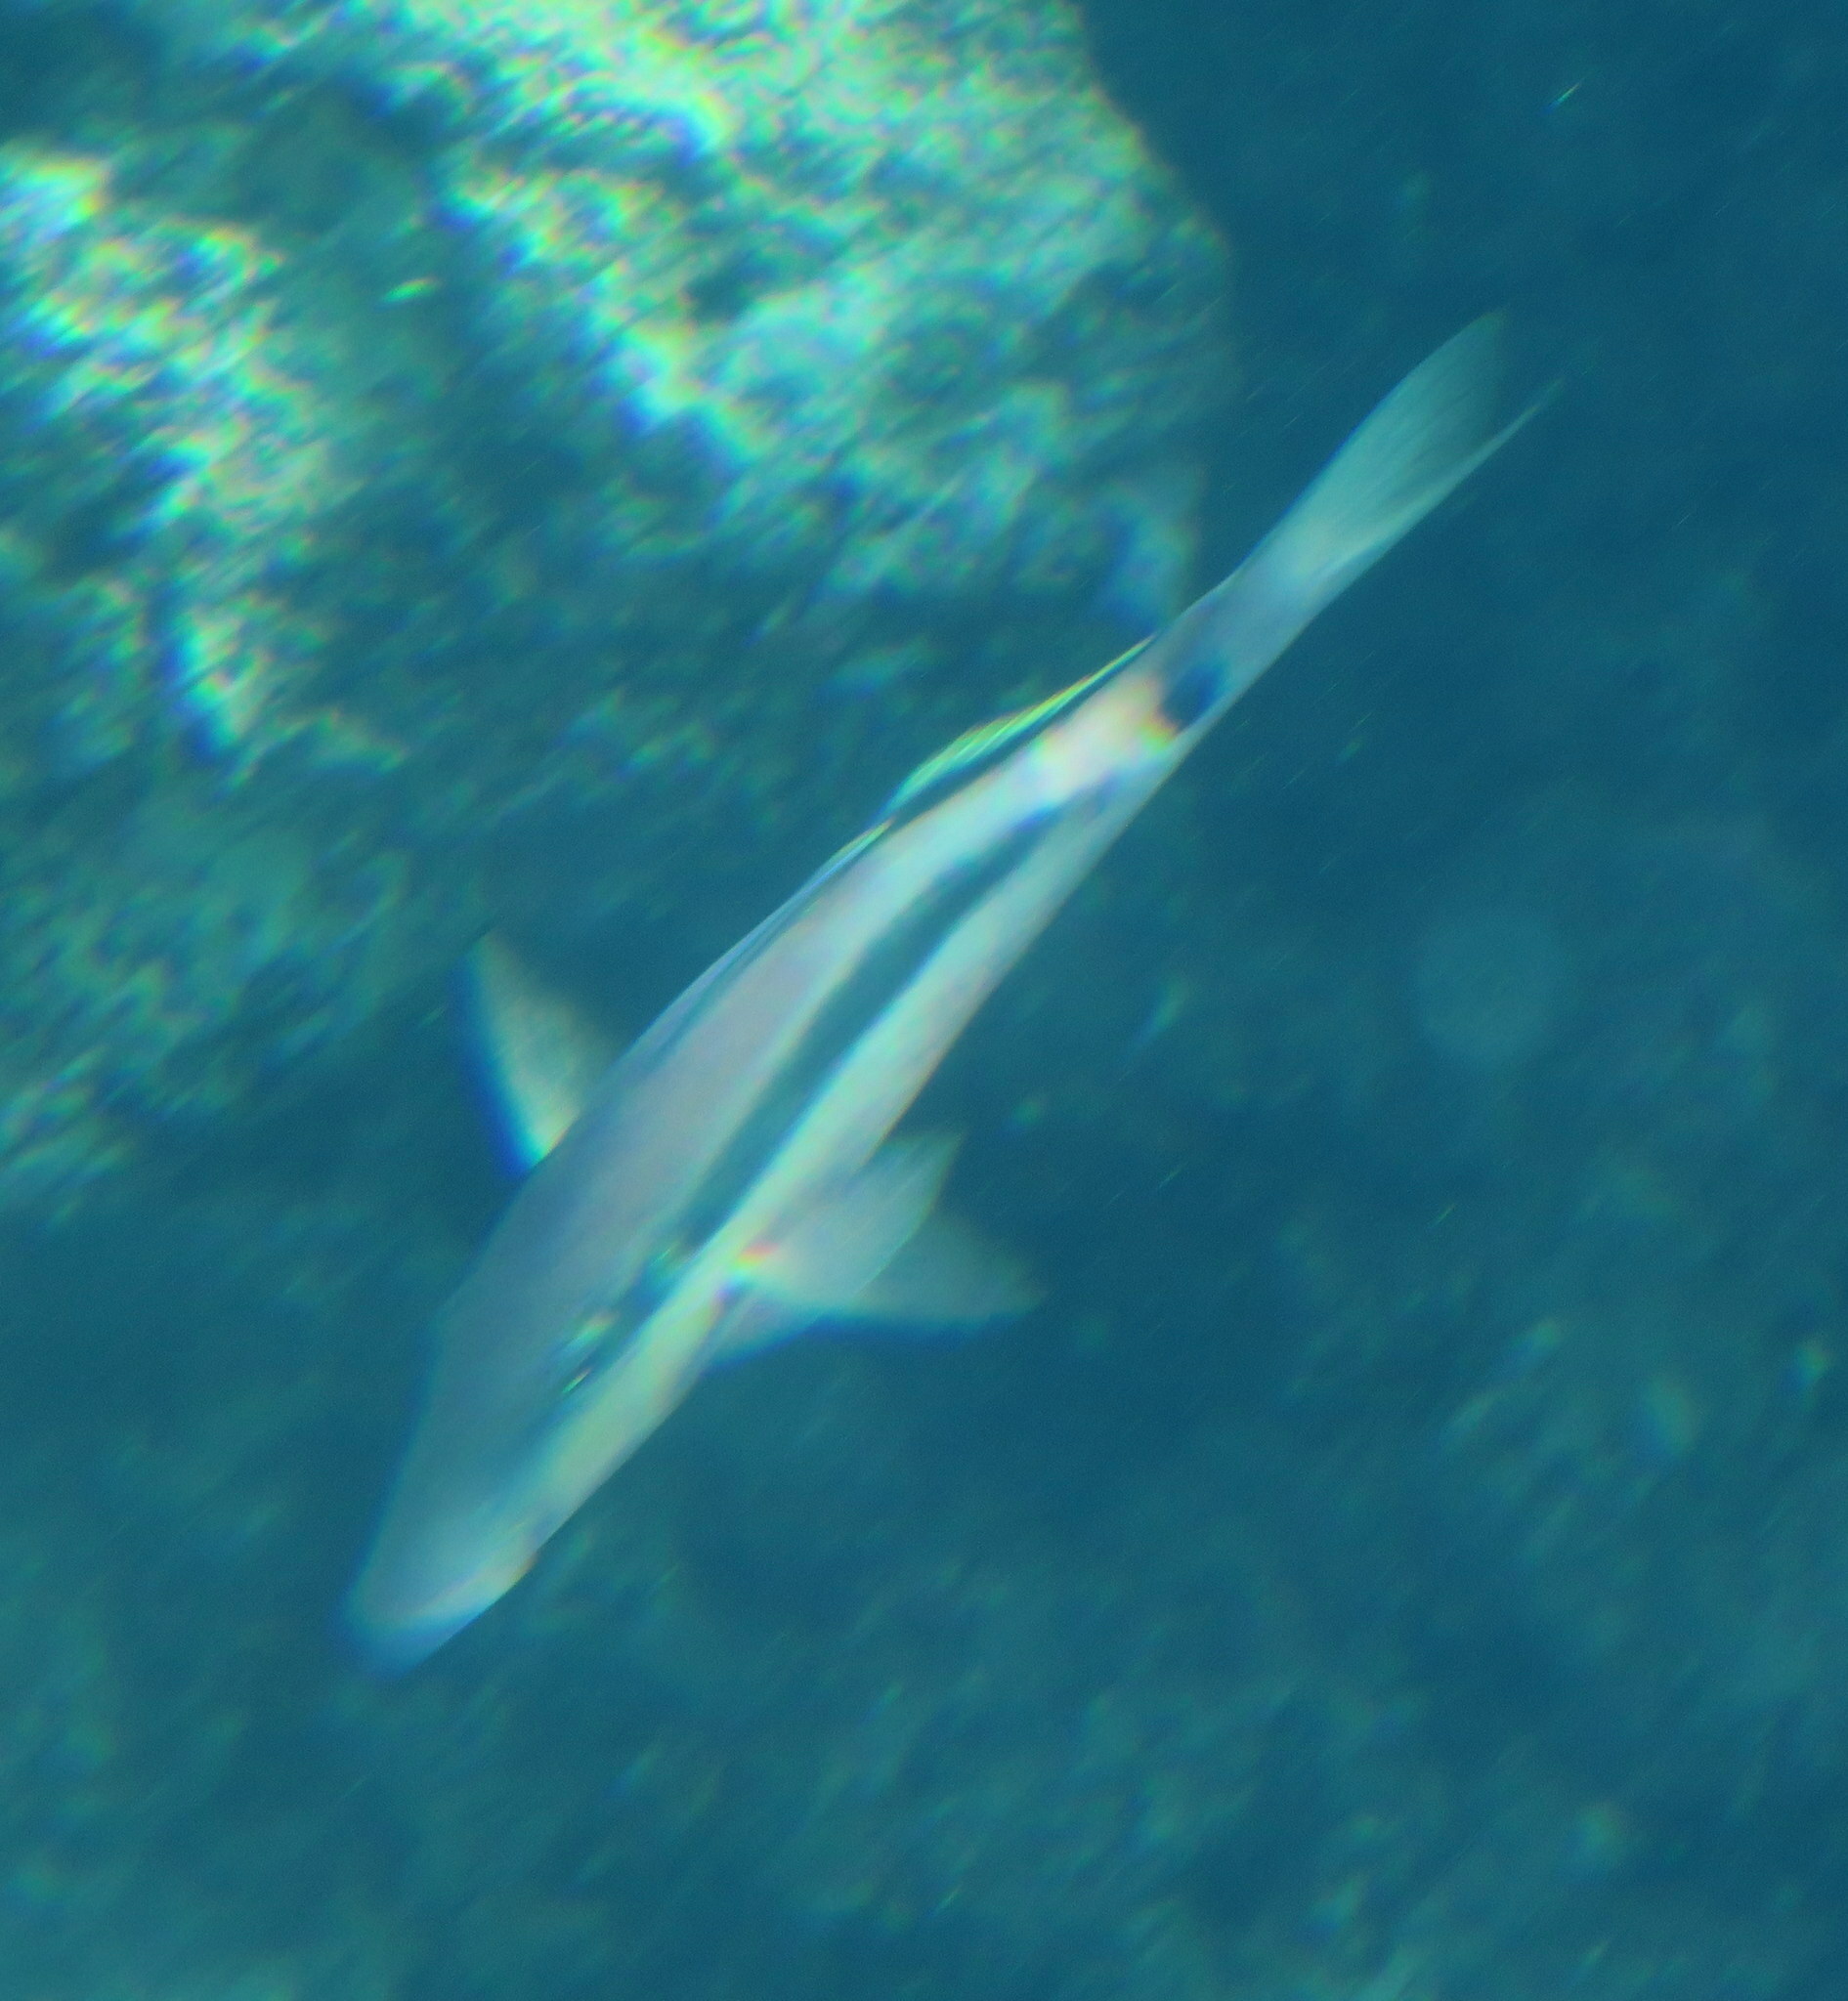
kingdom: Animalia
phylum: Chordata
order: Perciformes
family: Mullidae
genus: Parupeneus
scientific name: Parupeneus macronemus
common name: Long-barbel goatfish
